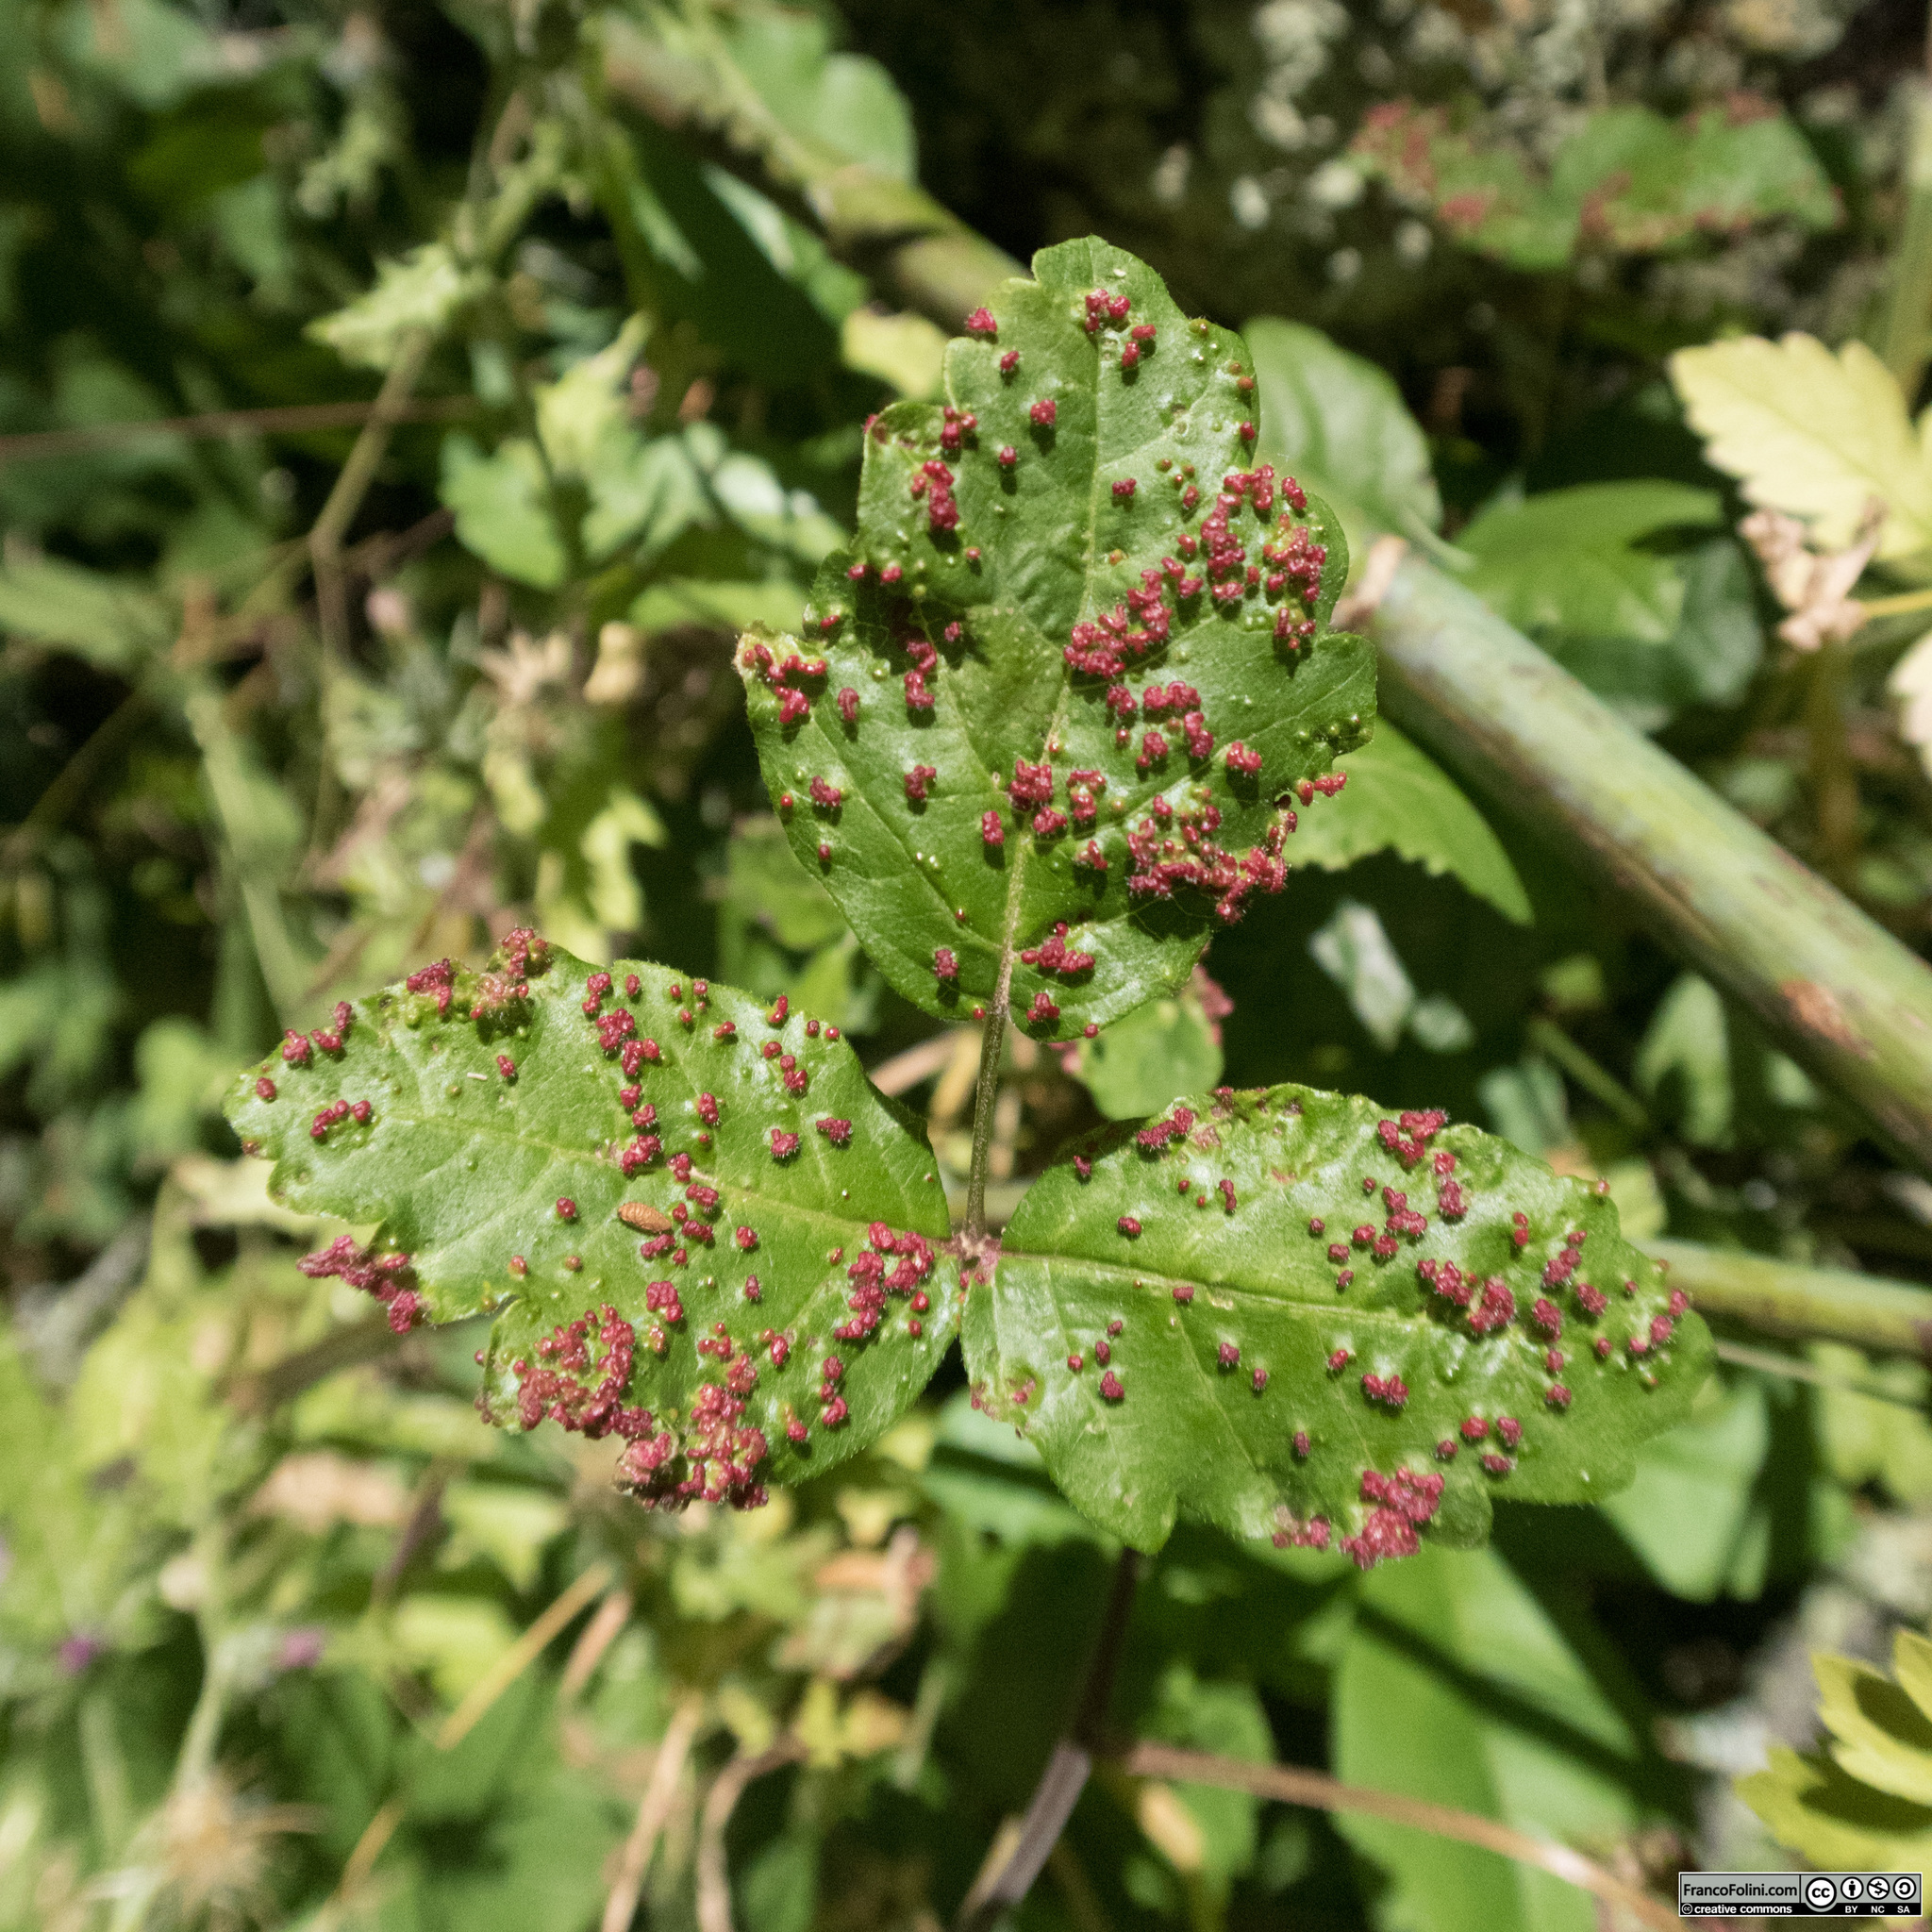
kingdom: Animalia
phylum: Arthropoda
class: Arachnida
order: Trombidiformes
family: Eriophyidae
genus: Aculops
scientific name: Aculops
